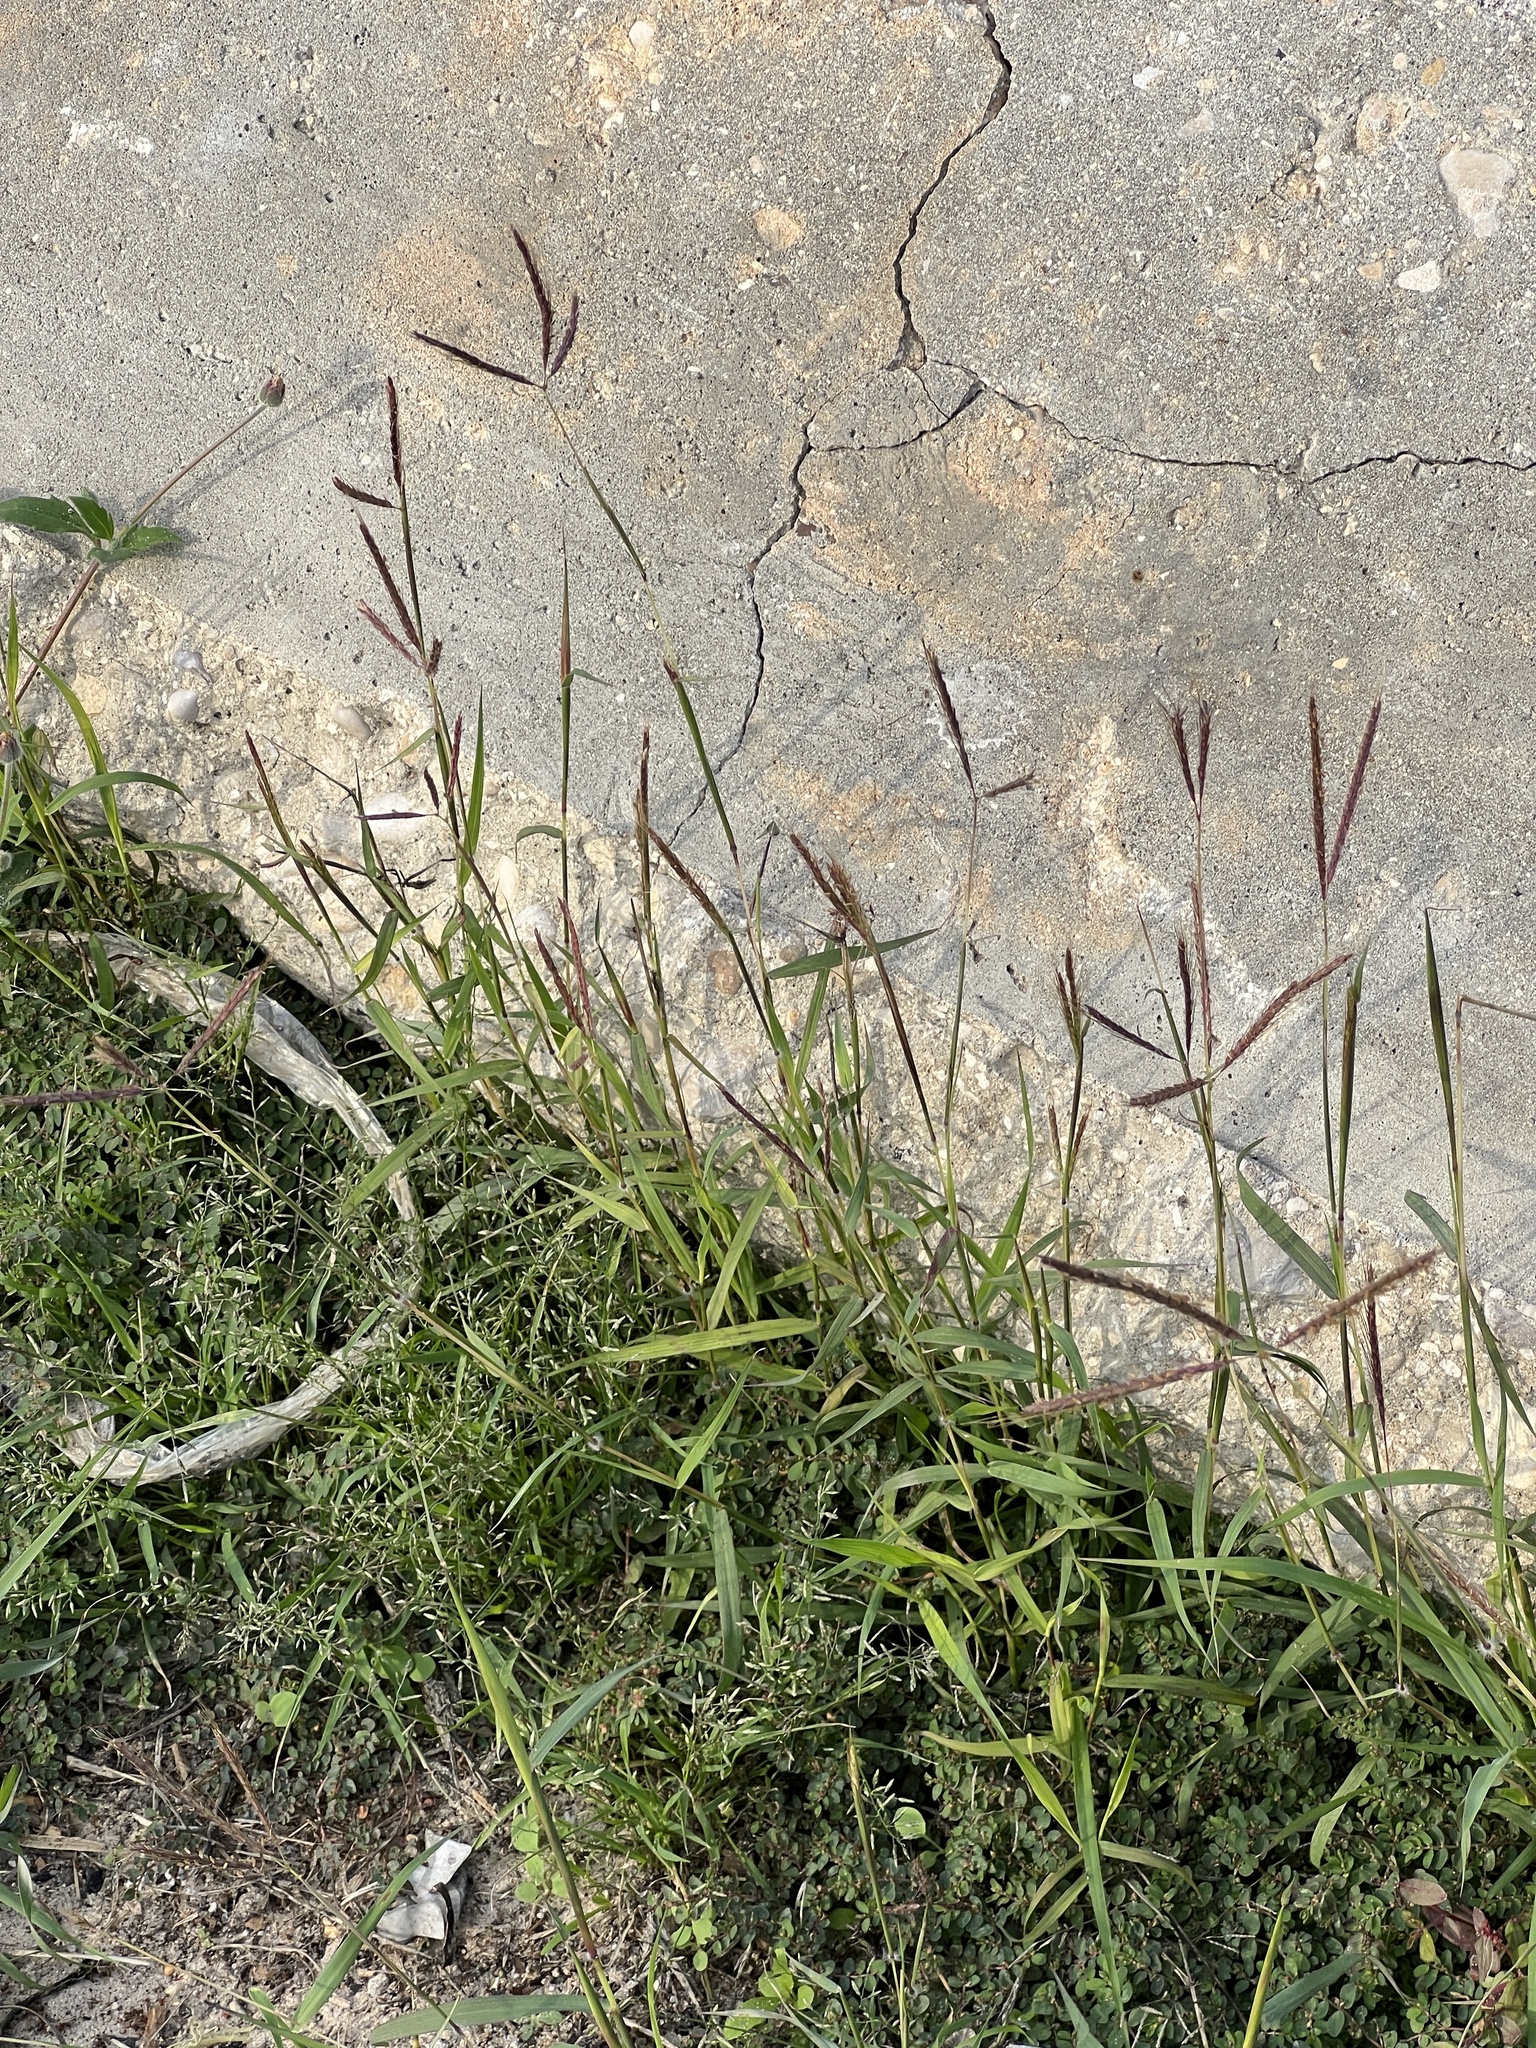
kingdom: Plantae
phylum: Tracheophyta
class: Liliopsida
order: Poales
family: Poaceae
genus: Dichanthium
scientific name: Dichanthium annulatum
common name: Kleberg's bluestem
